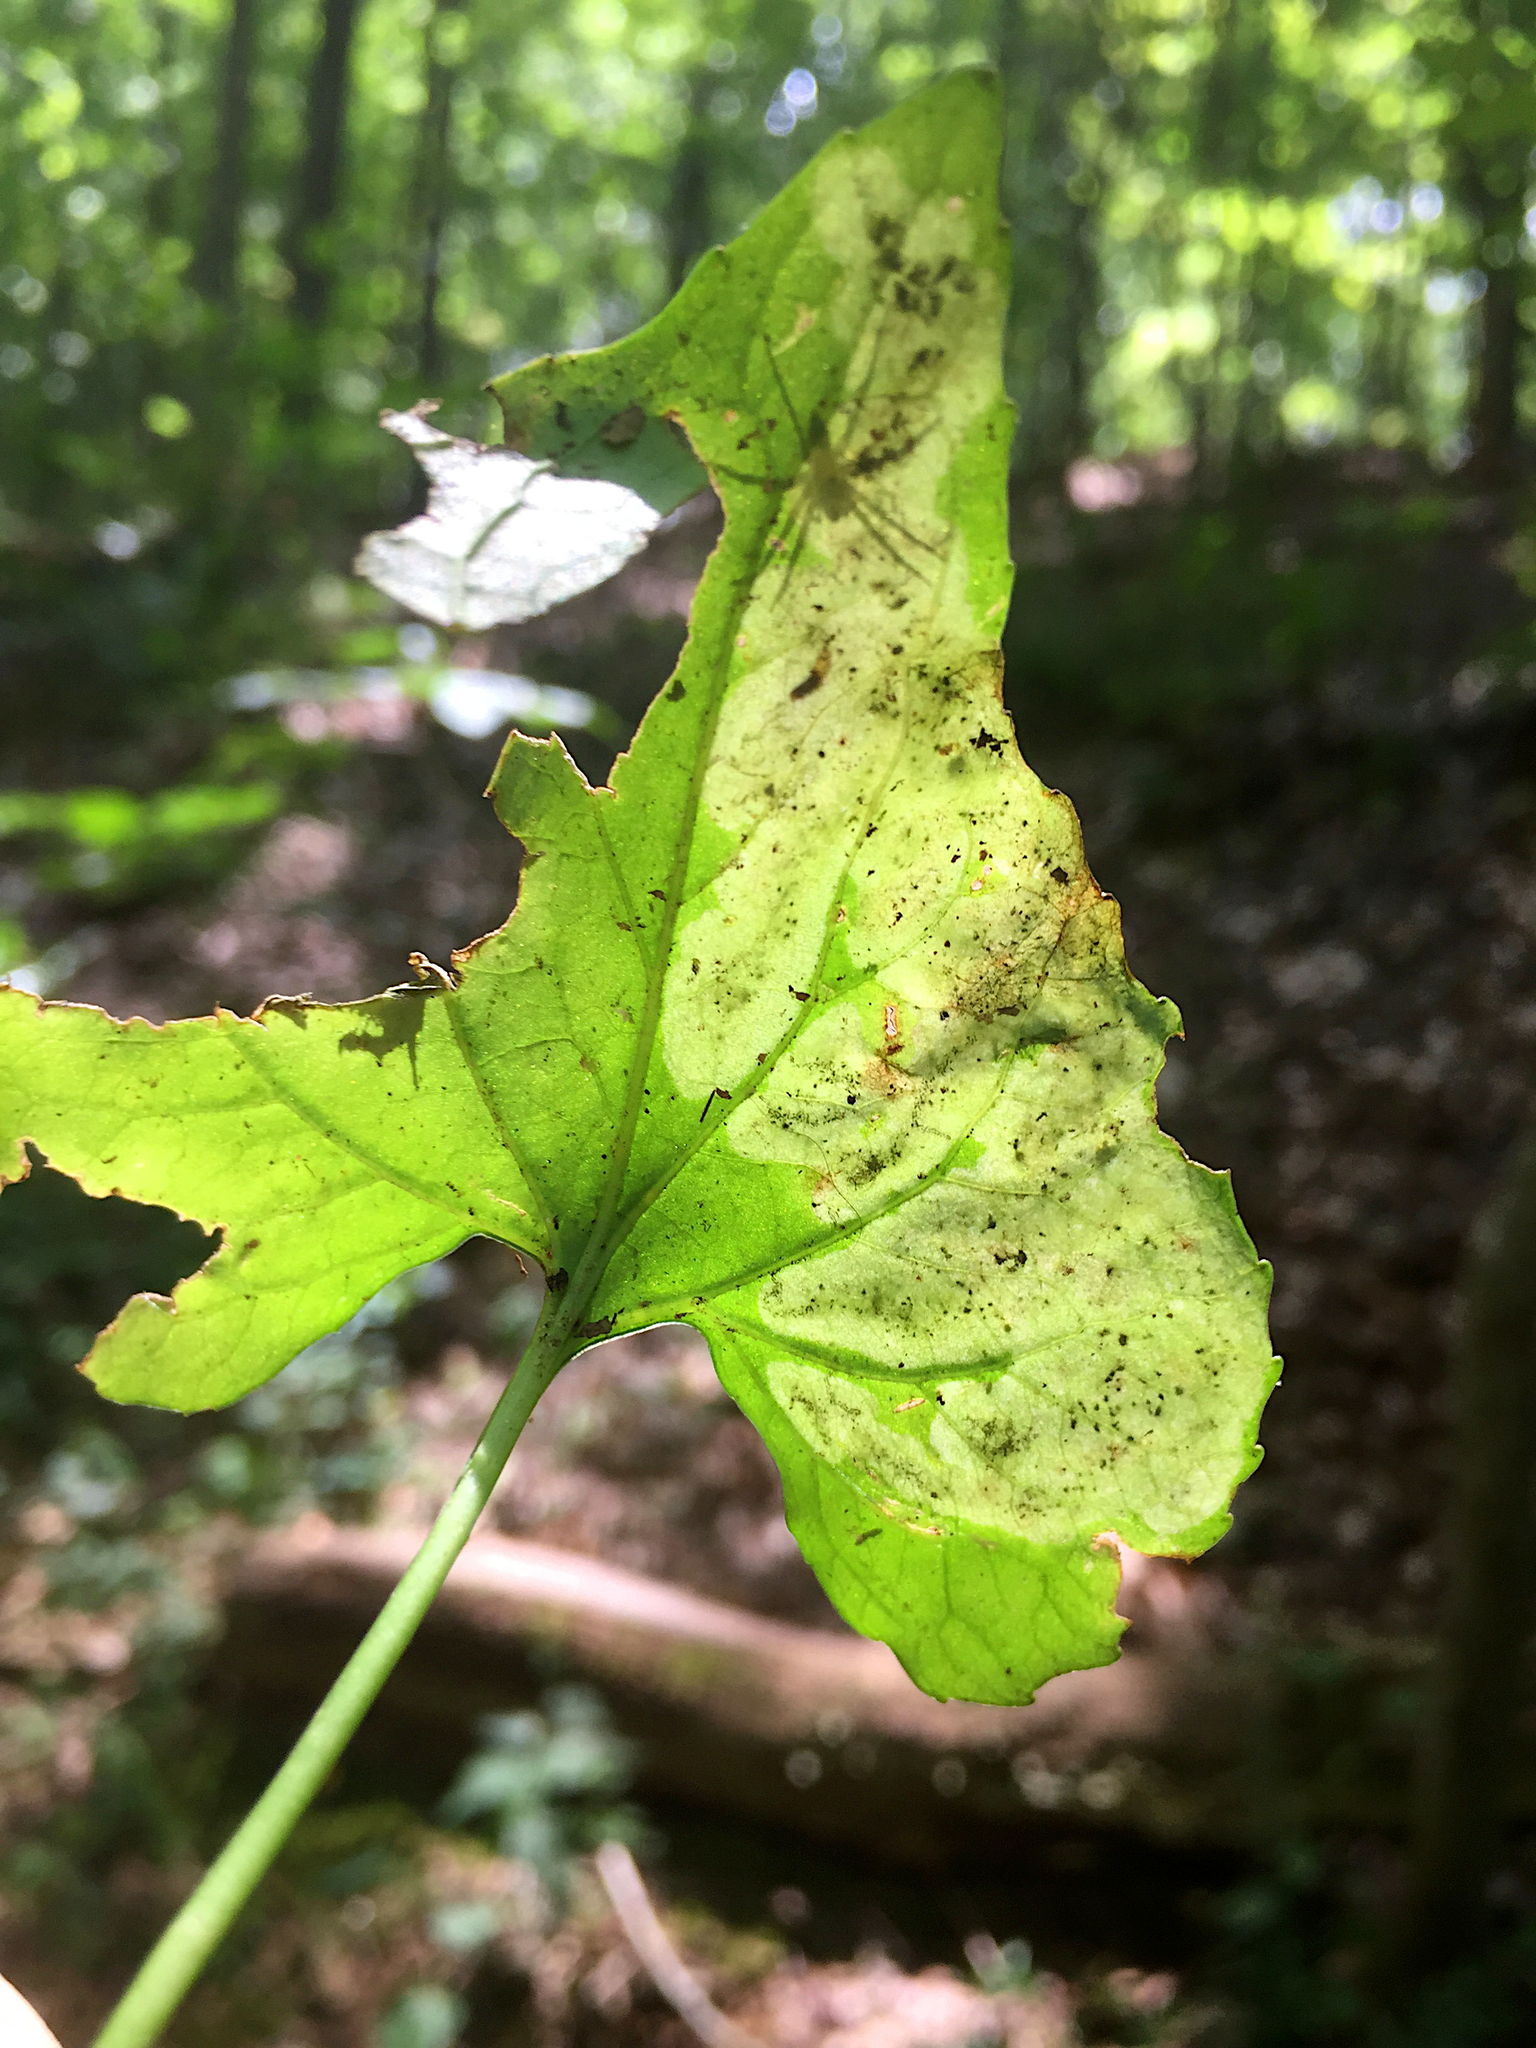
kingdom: Animalia
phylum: Arthropoda
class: Insecta
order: Diptera
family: Agromyzidae
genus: Liriomyza
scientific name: Liriomyza violivora
